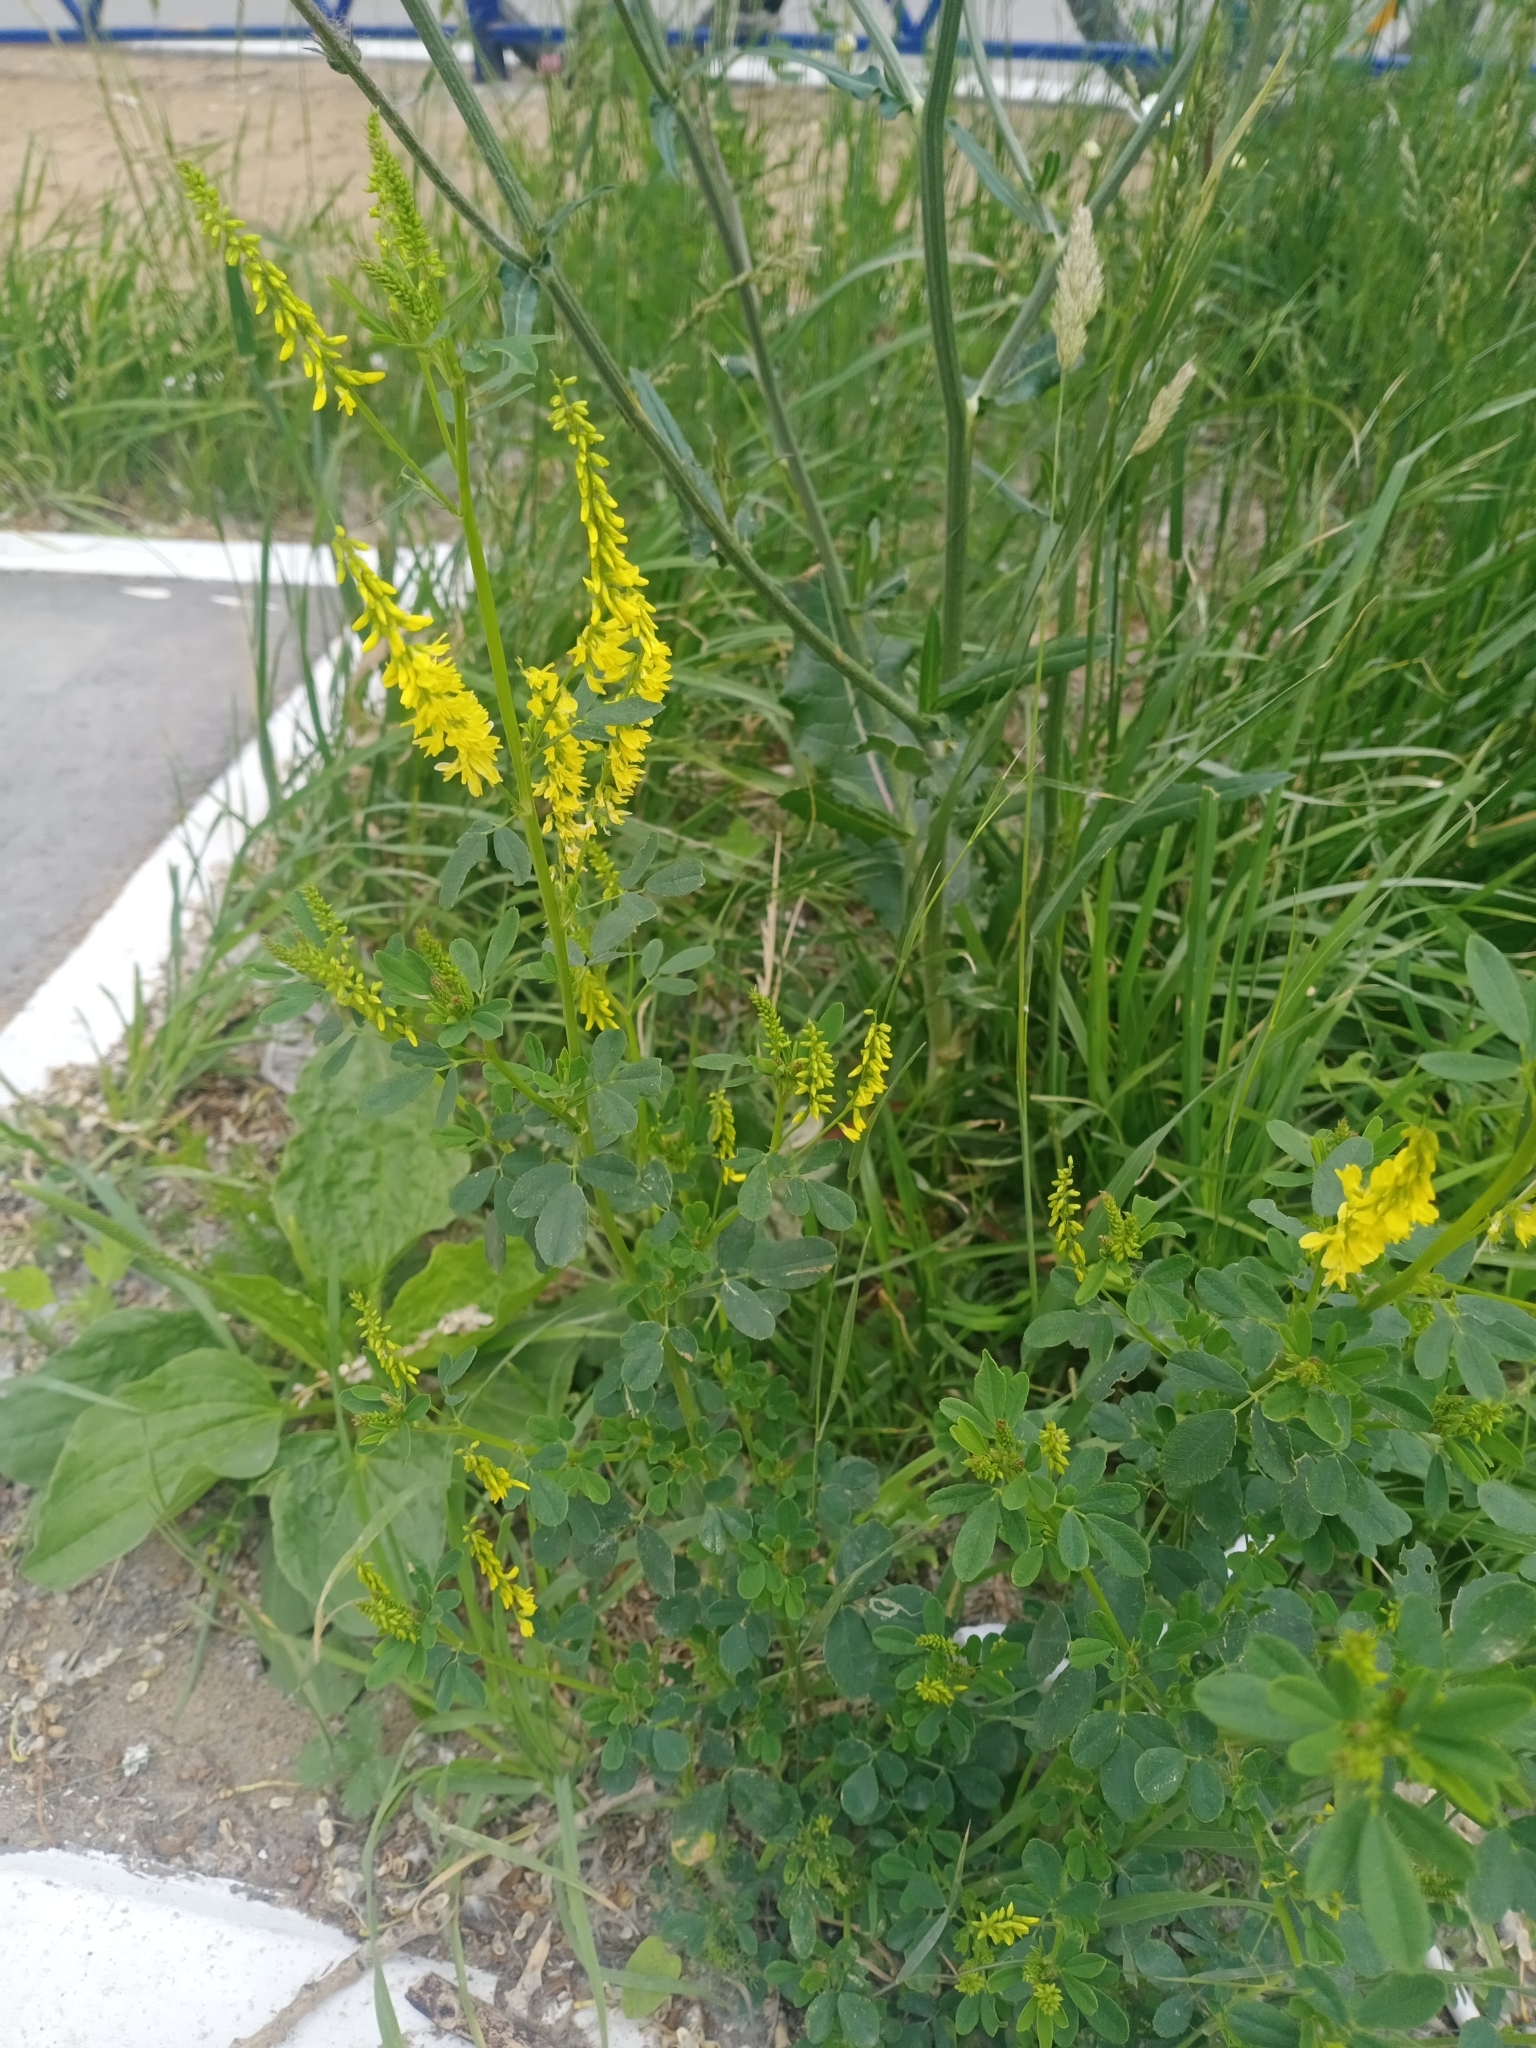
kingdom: Plantae
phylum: Tracheophyta
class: Magnoliopsida
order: Fabales
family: Fabaceae
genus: Melilotus
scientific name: Melilotus officinalis
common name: Sweetclover
